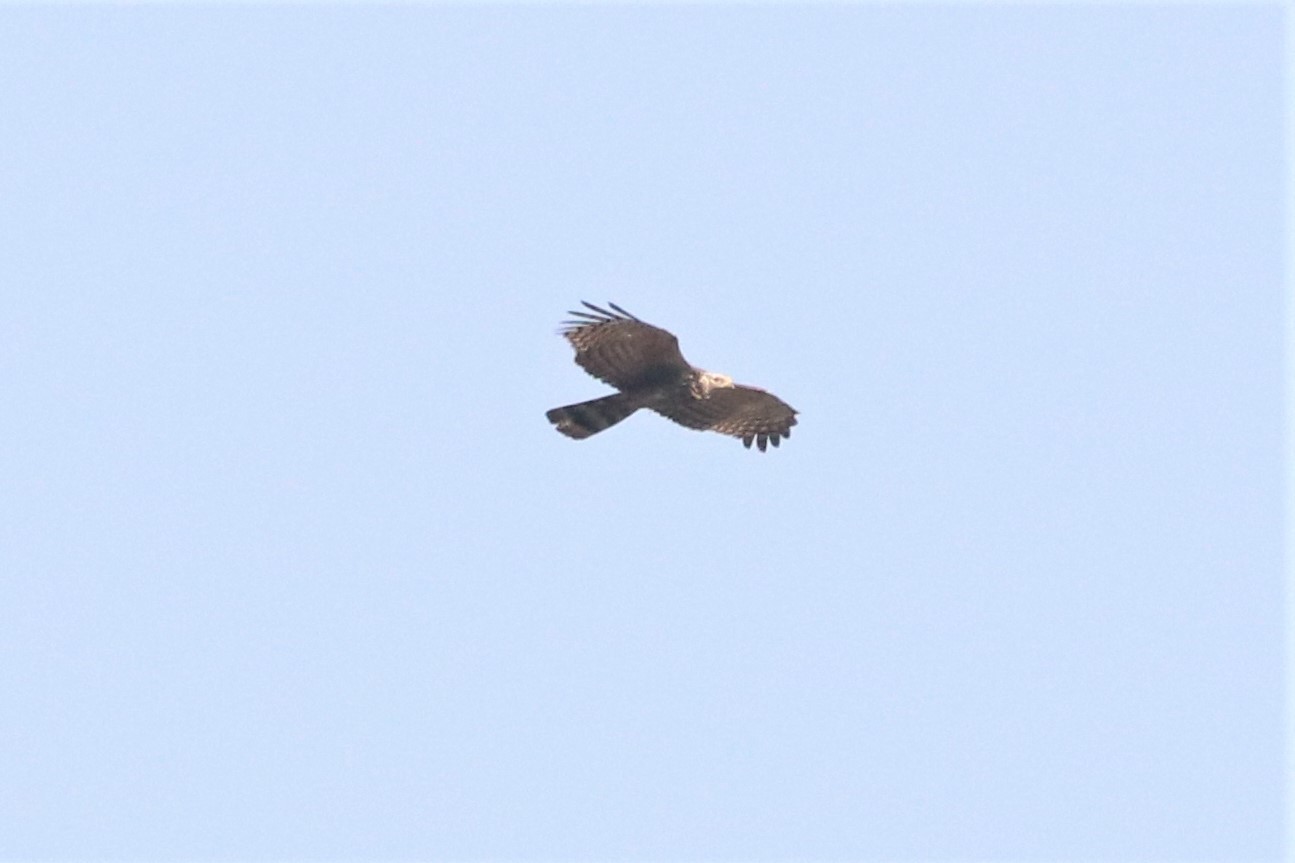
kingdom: Animalia
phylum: Chordata
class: Aves
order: Accipitriformes
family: Accipitridae
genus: Pernis
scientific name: Pernis ptilorhynchus
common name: Crested honey buzzard
